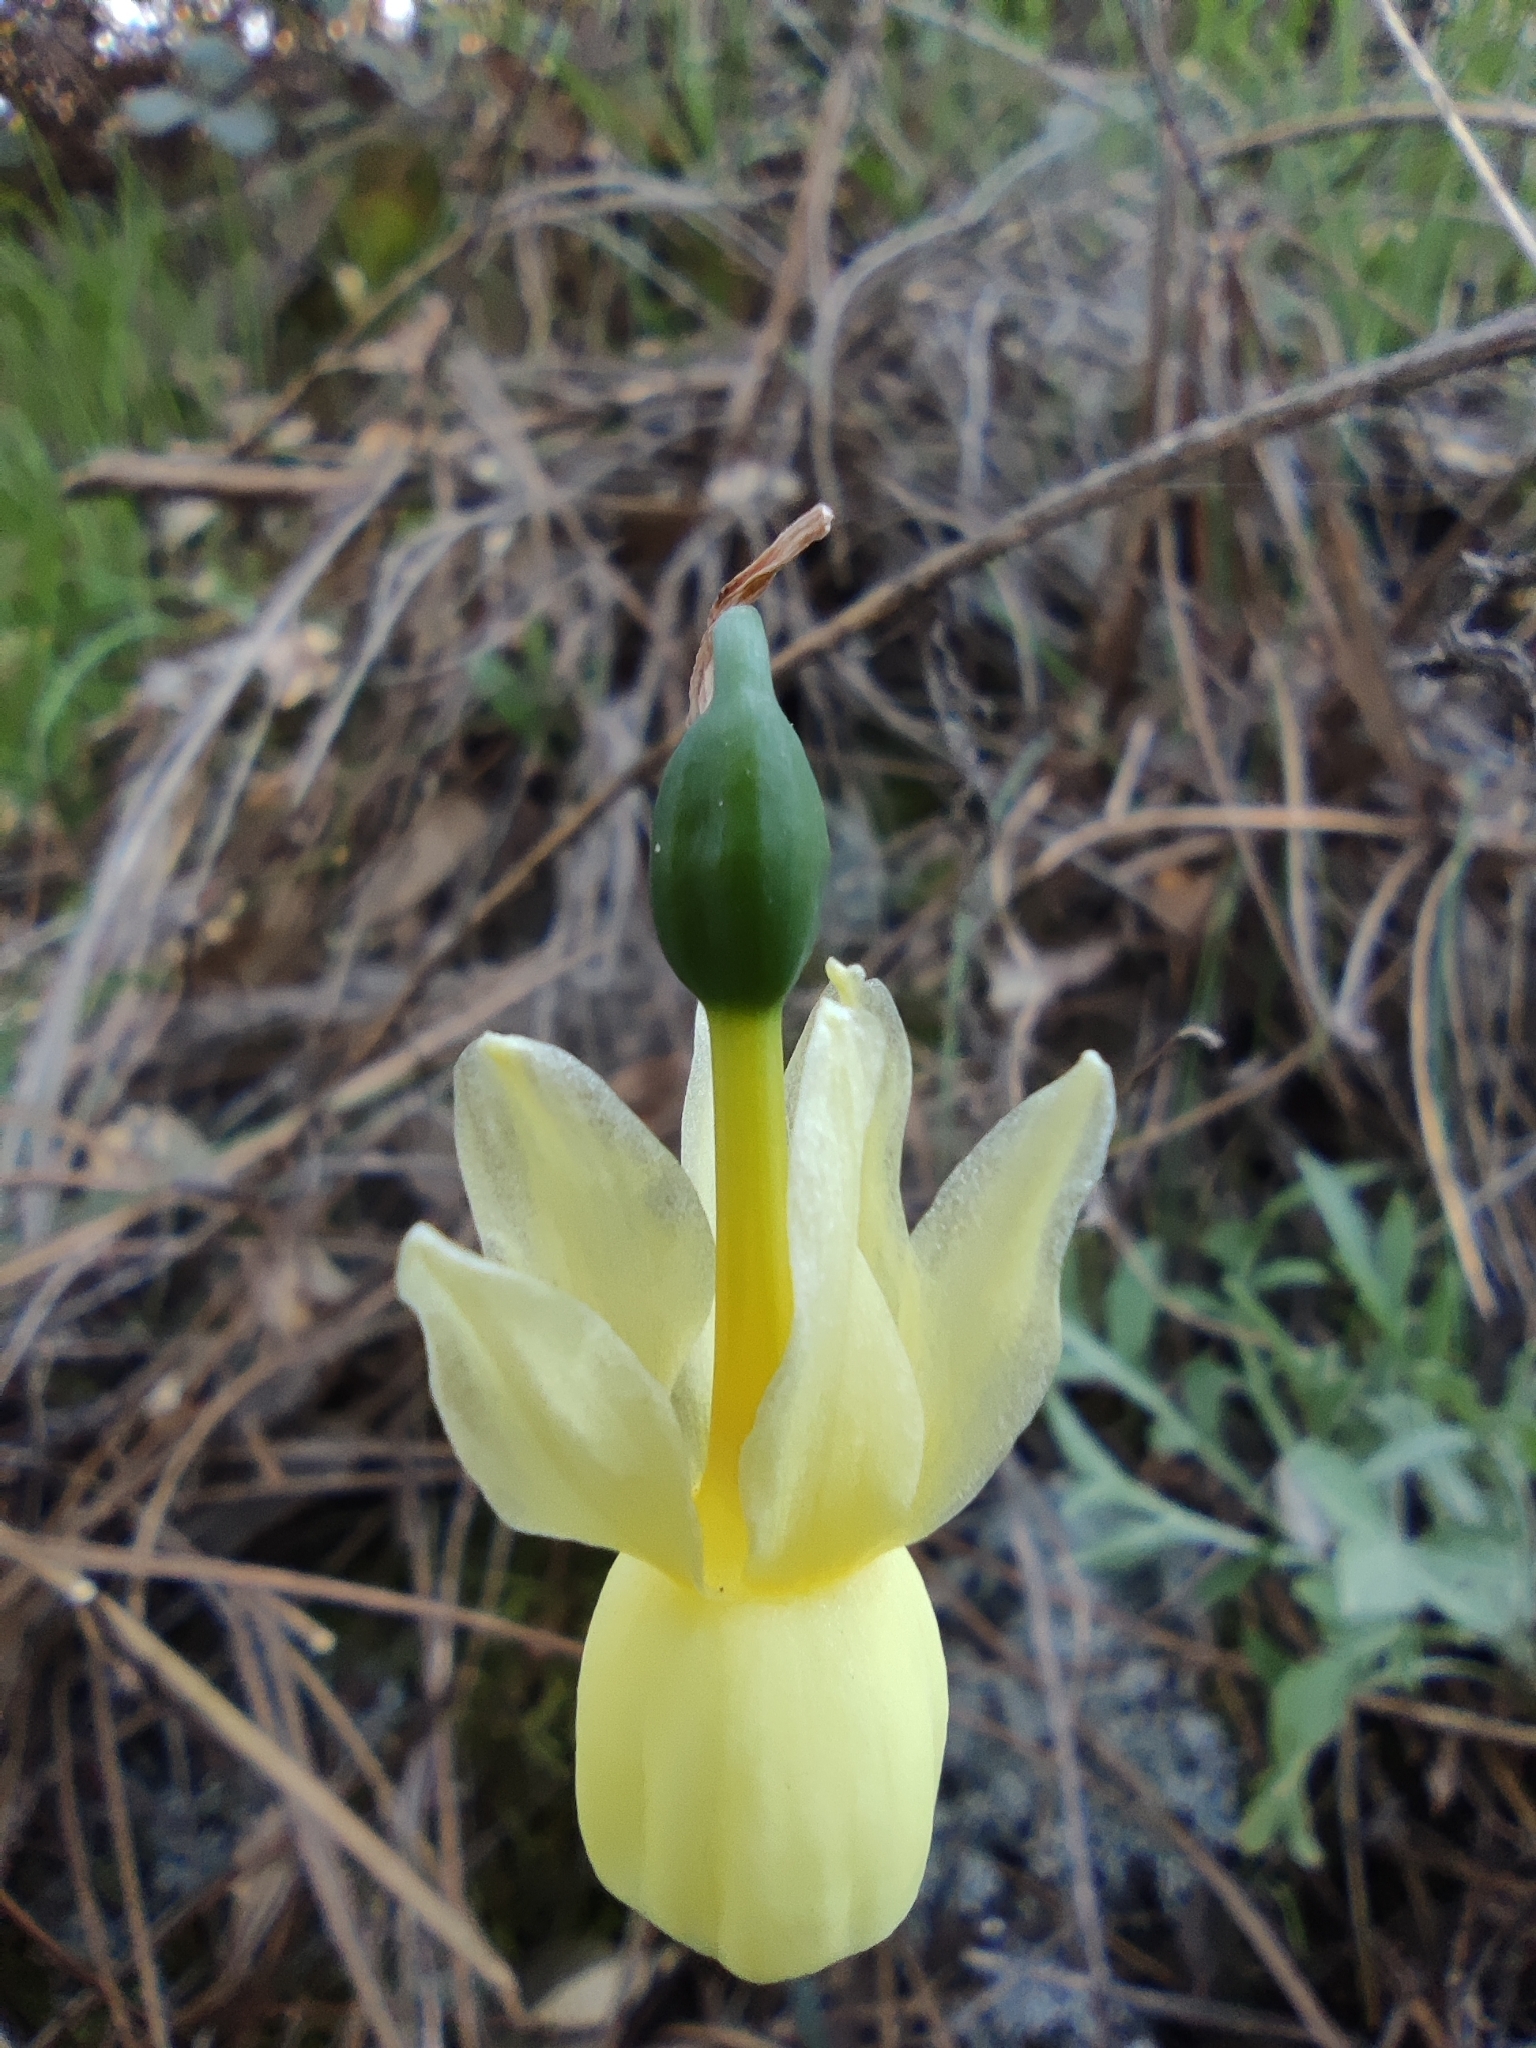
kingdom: Plantae
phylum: Tracheophyta
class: Liliopsida
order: Asparagales
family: Amaryllidaceae
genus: Narcissus
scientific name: Narcissus triandrus
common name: Angel's-tears
